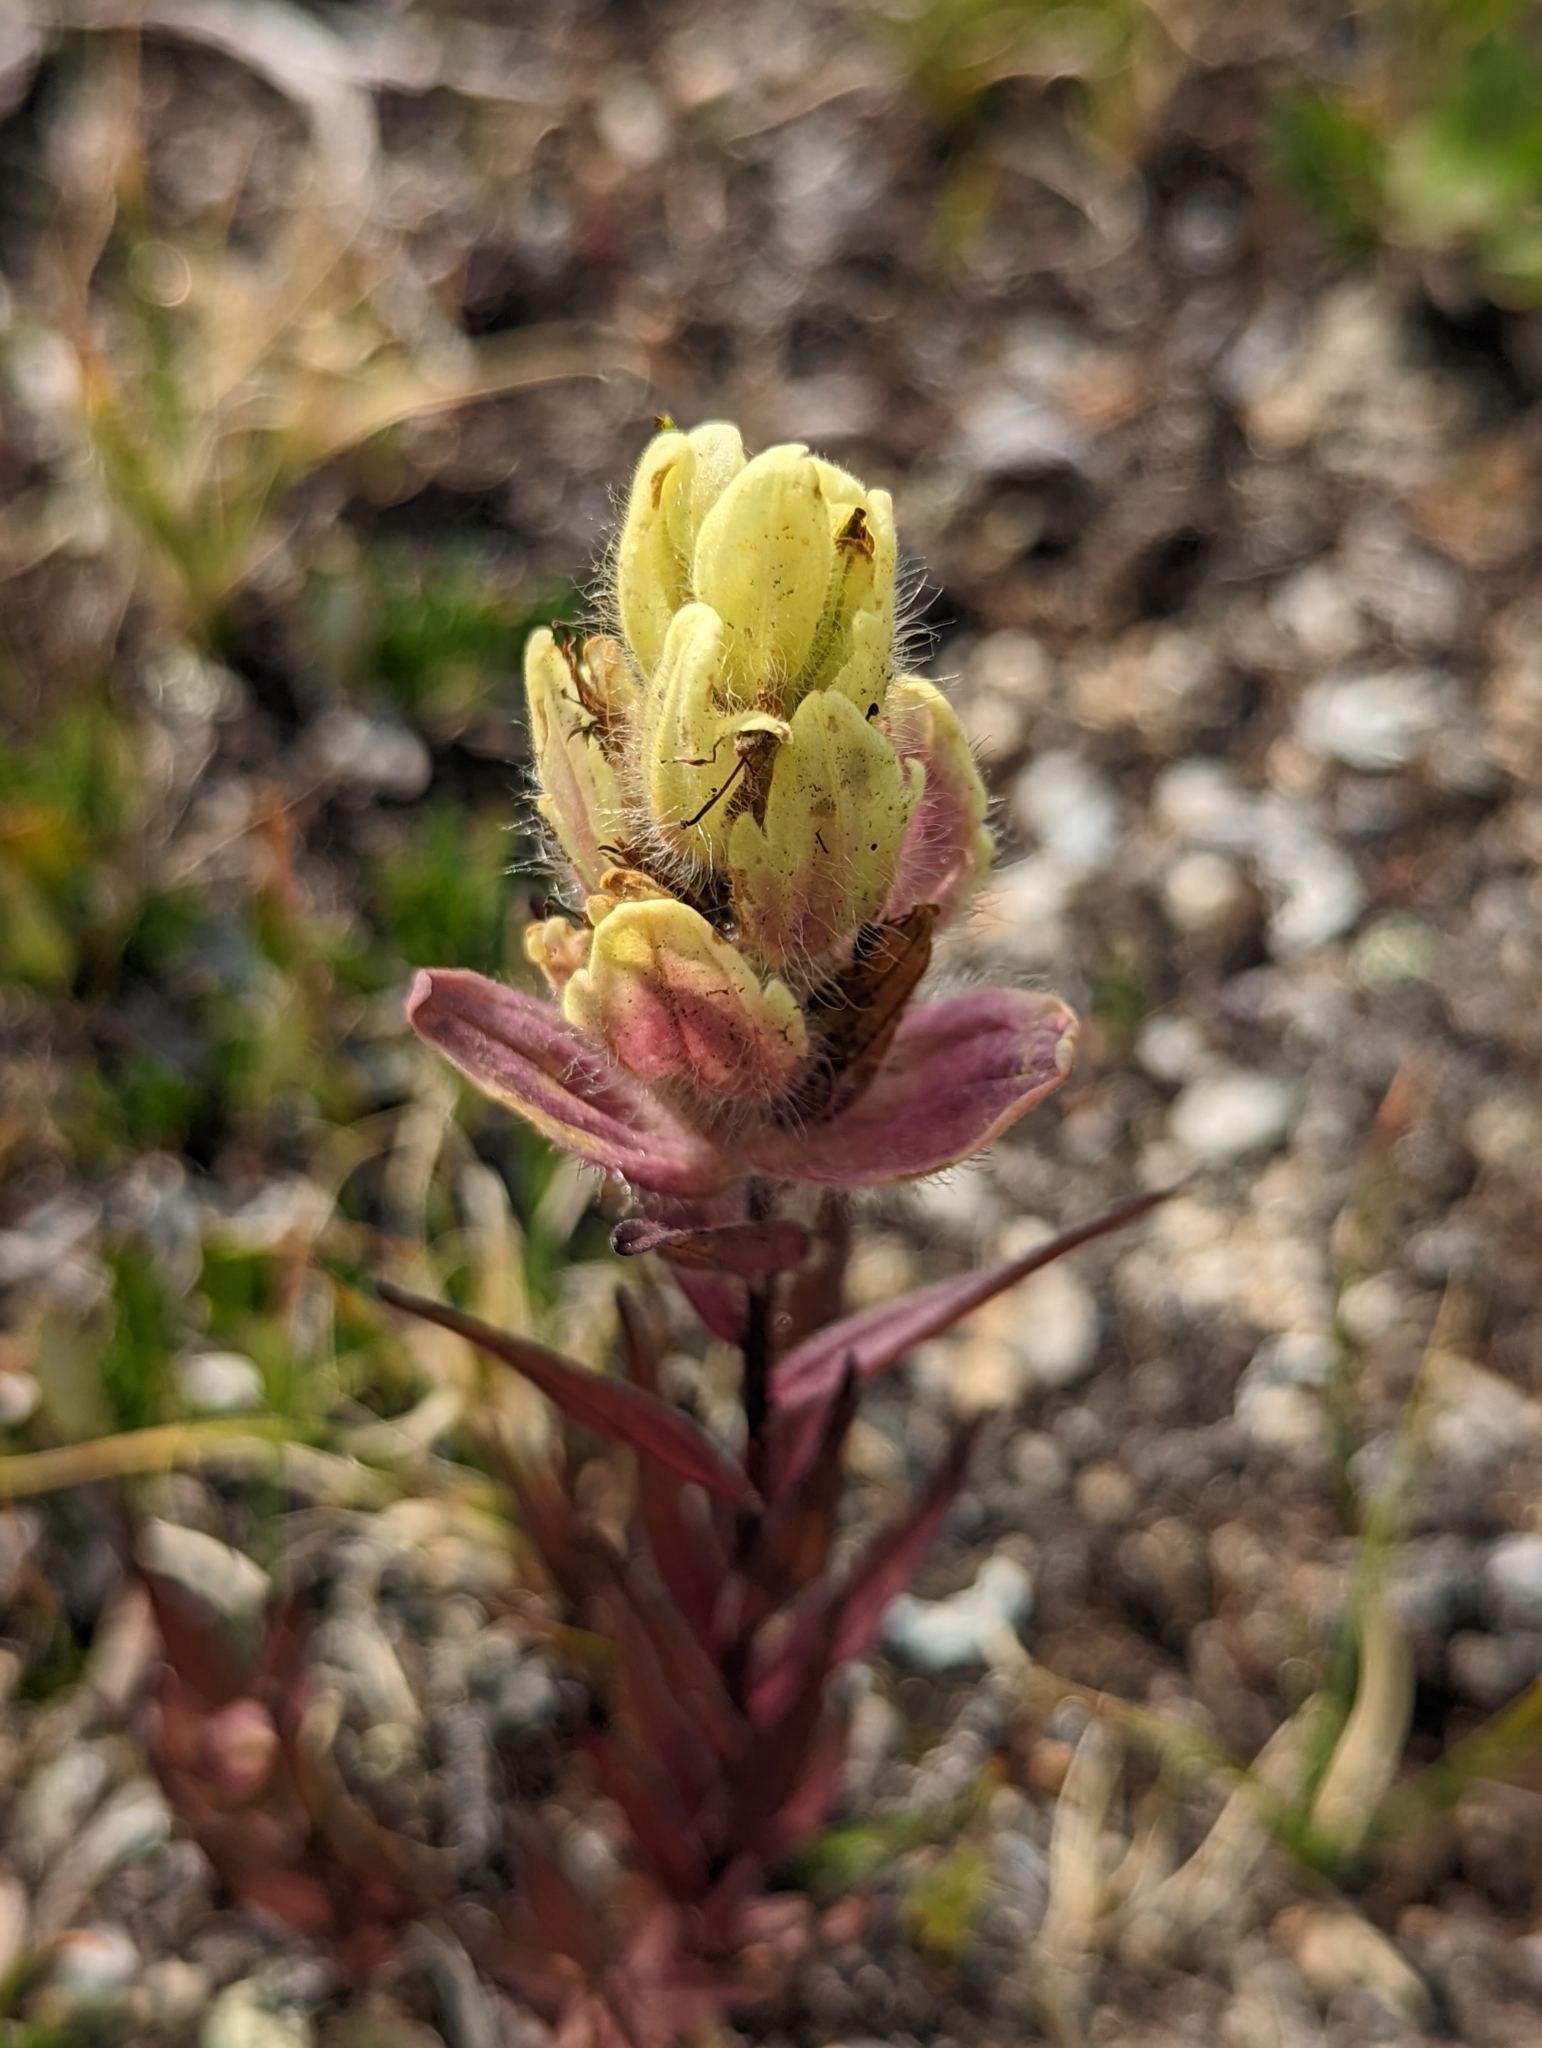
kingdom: Plantae
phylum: Tracheophyta
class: Magnoliopsida
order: Lamiales
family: Orobanchaceae
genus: Castilleja
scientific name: Castilleja occidentalis
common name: Western paintbrush
